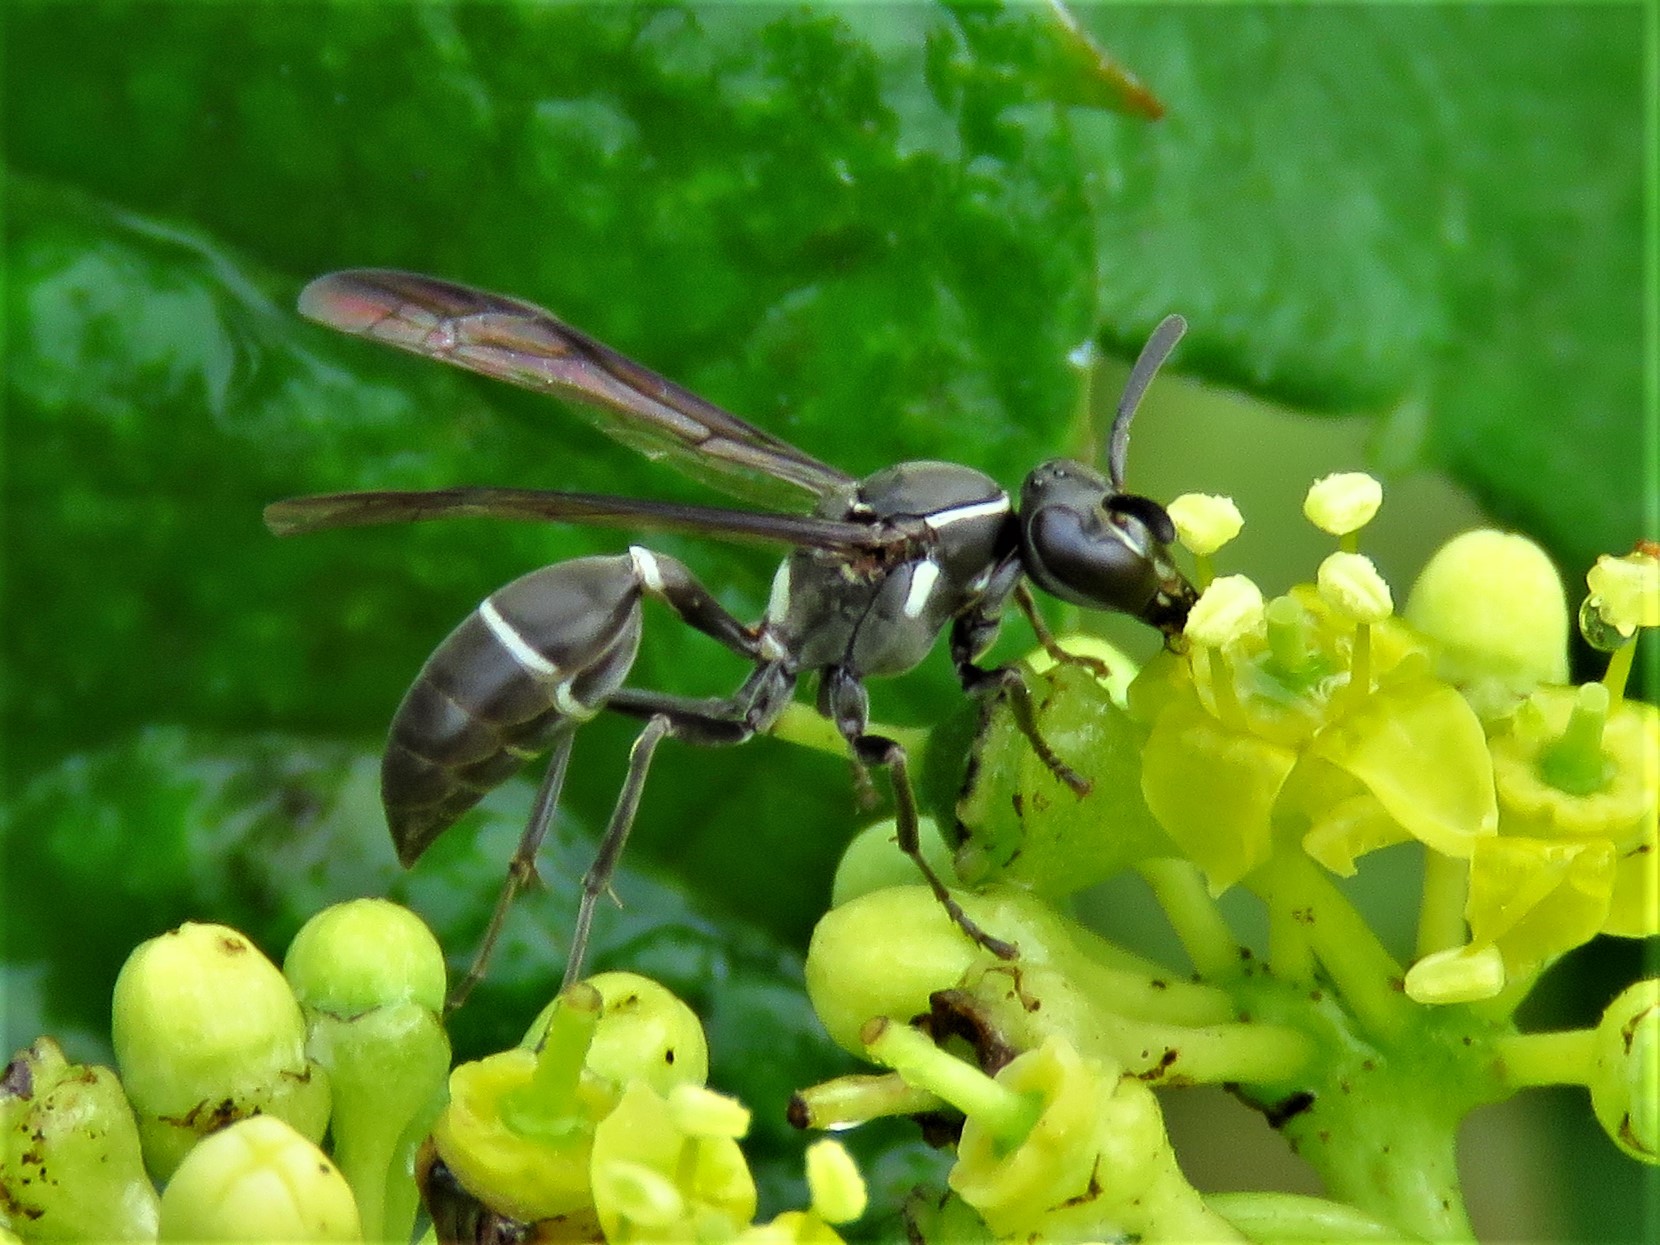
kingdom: Animalia
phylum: Arthropoda
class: Insecta
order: Hymenoptera
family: Eumenidae
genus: Polybia
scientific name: Polybia plebeja
